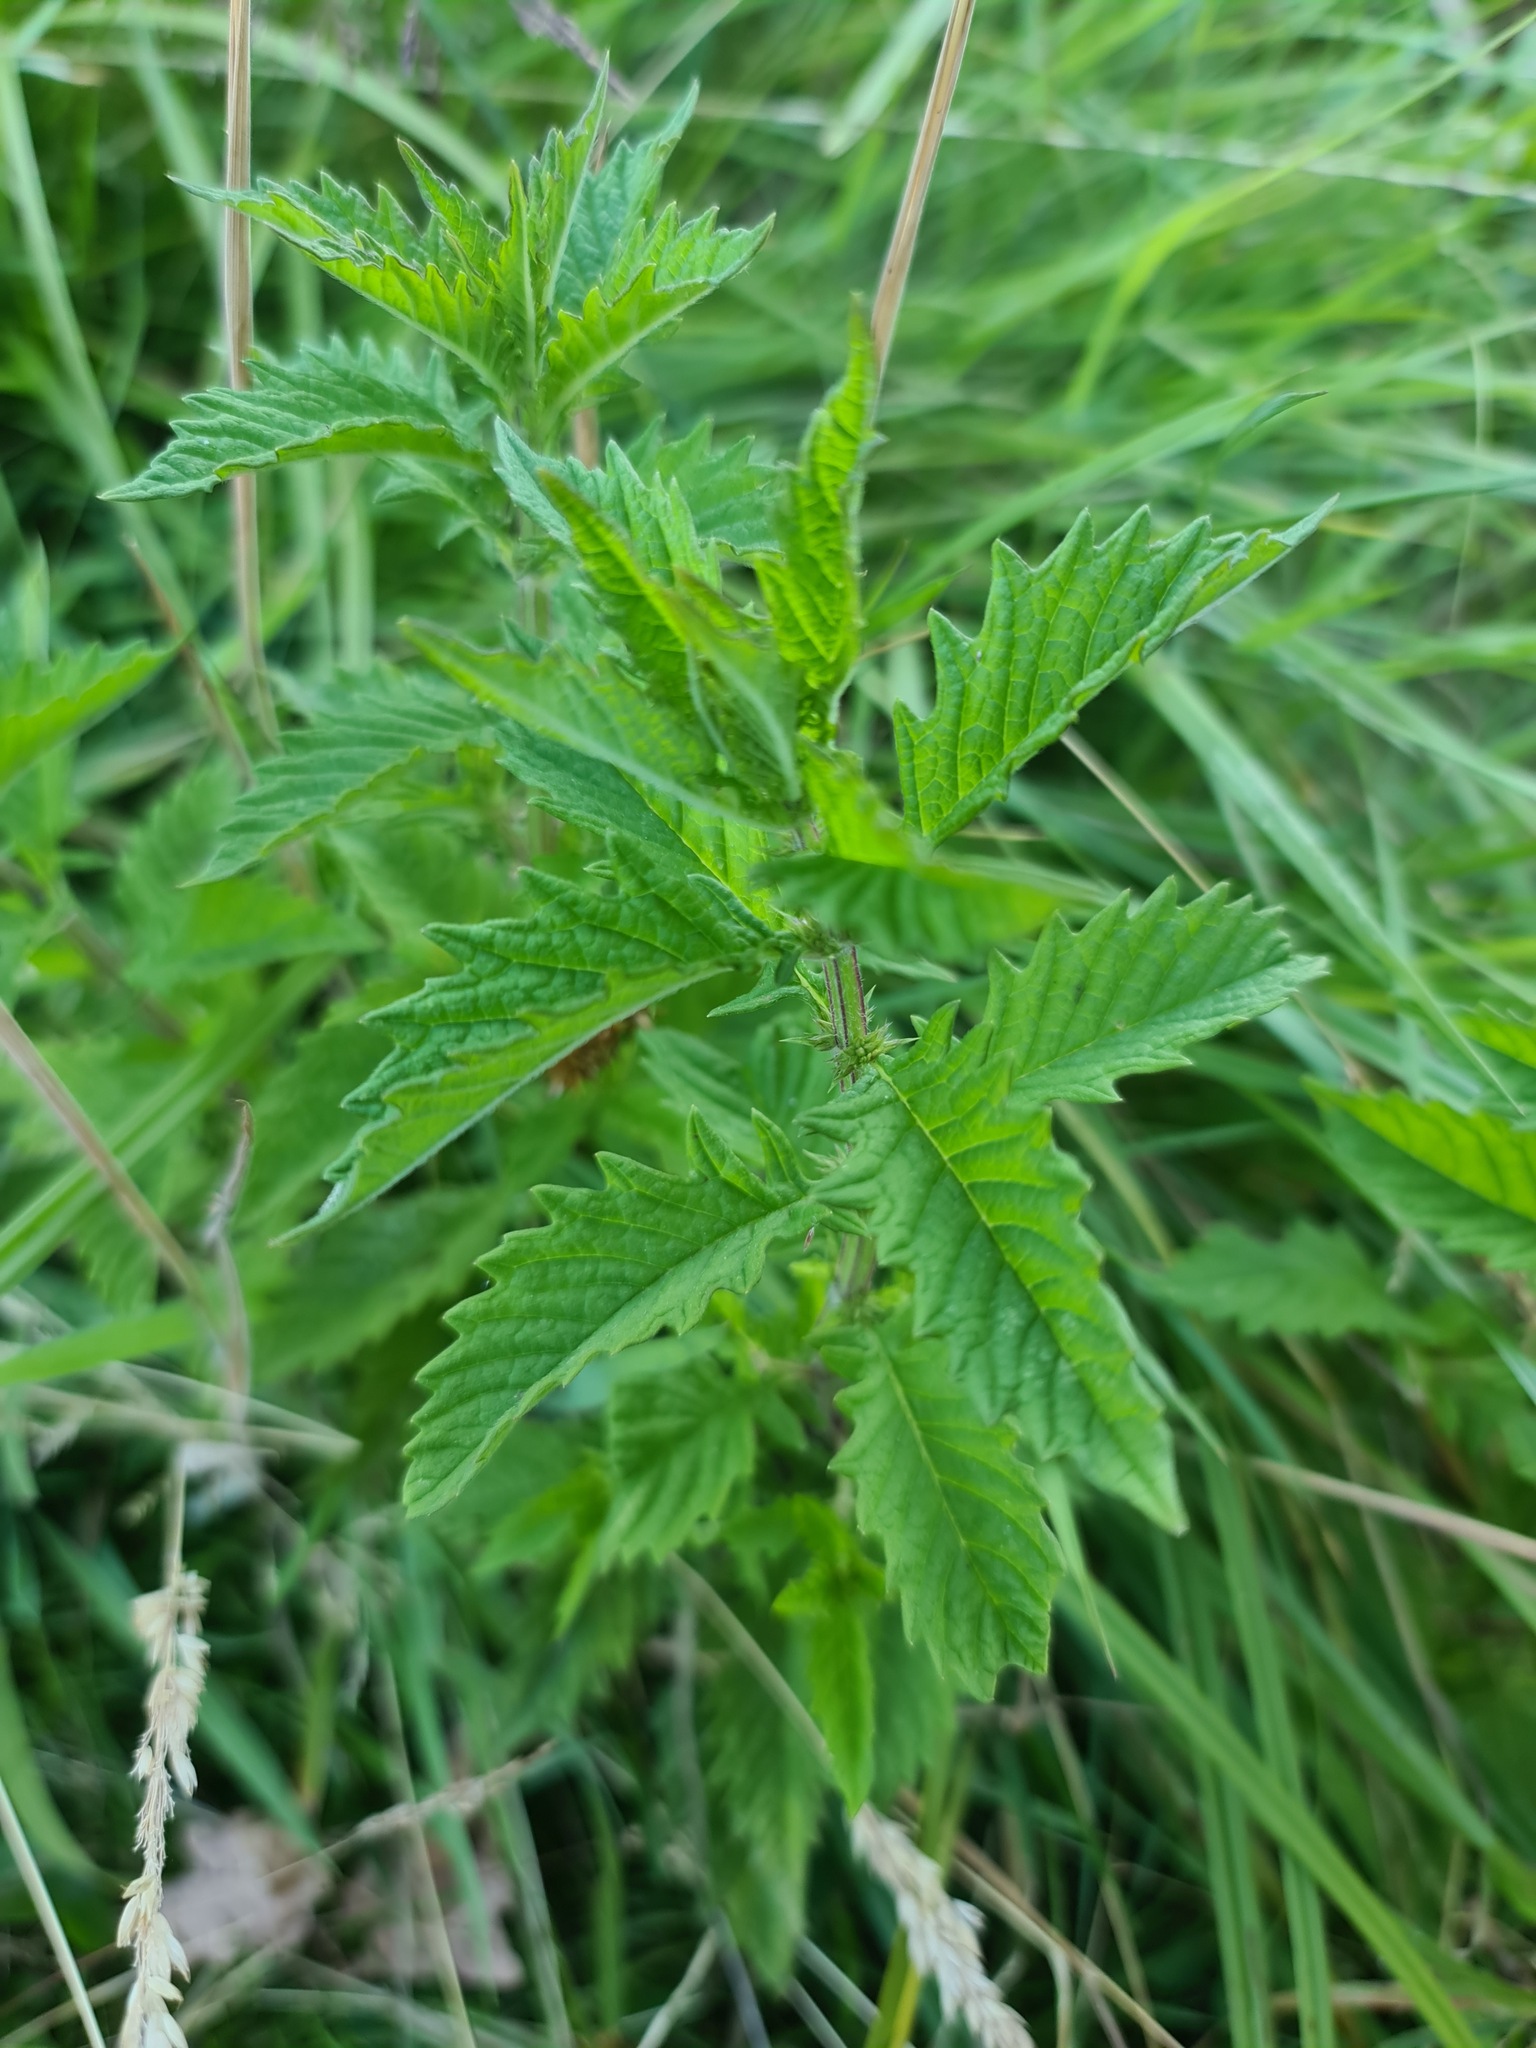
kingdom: Plantae
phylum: Tracheophyta
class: Magnoliopsida
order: Lamiales
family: Lamiaceae
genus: Lycopus
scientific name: Lycopus europaeus
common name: European bugleweed
